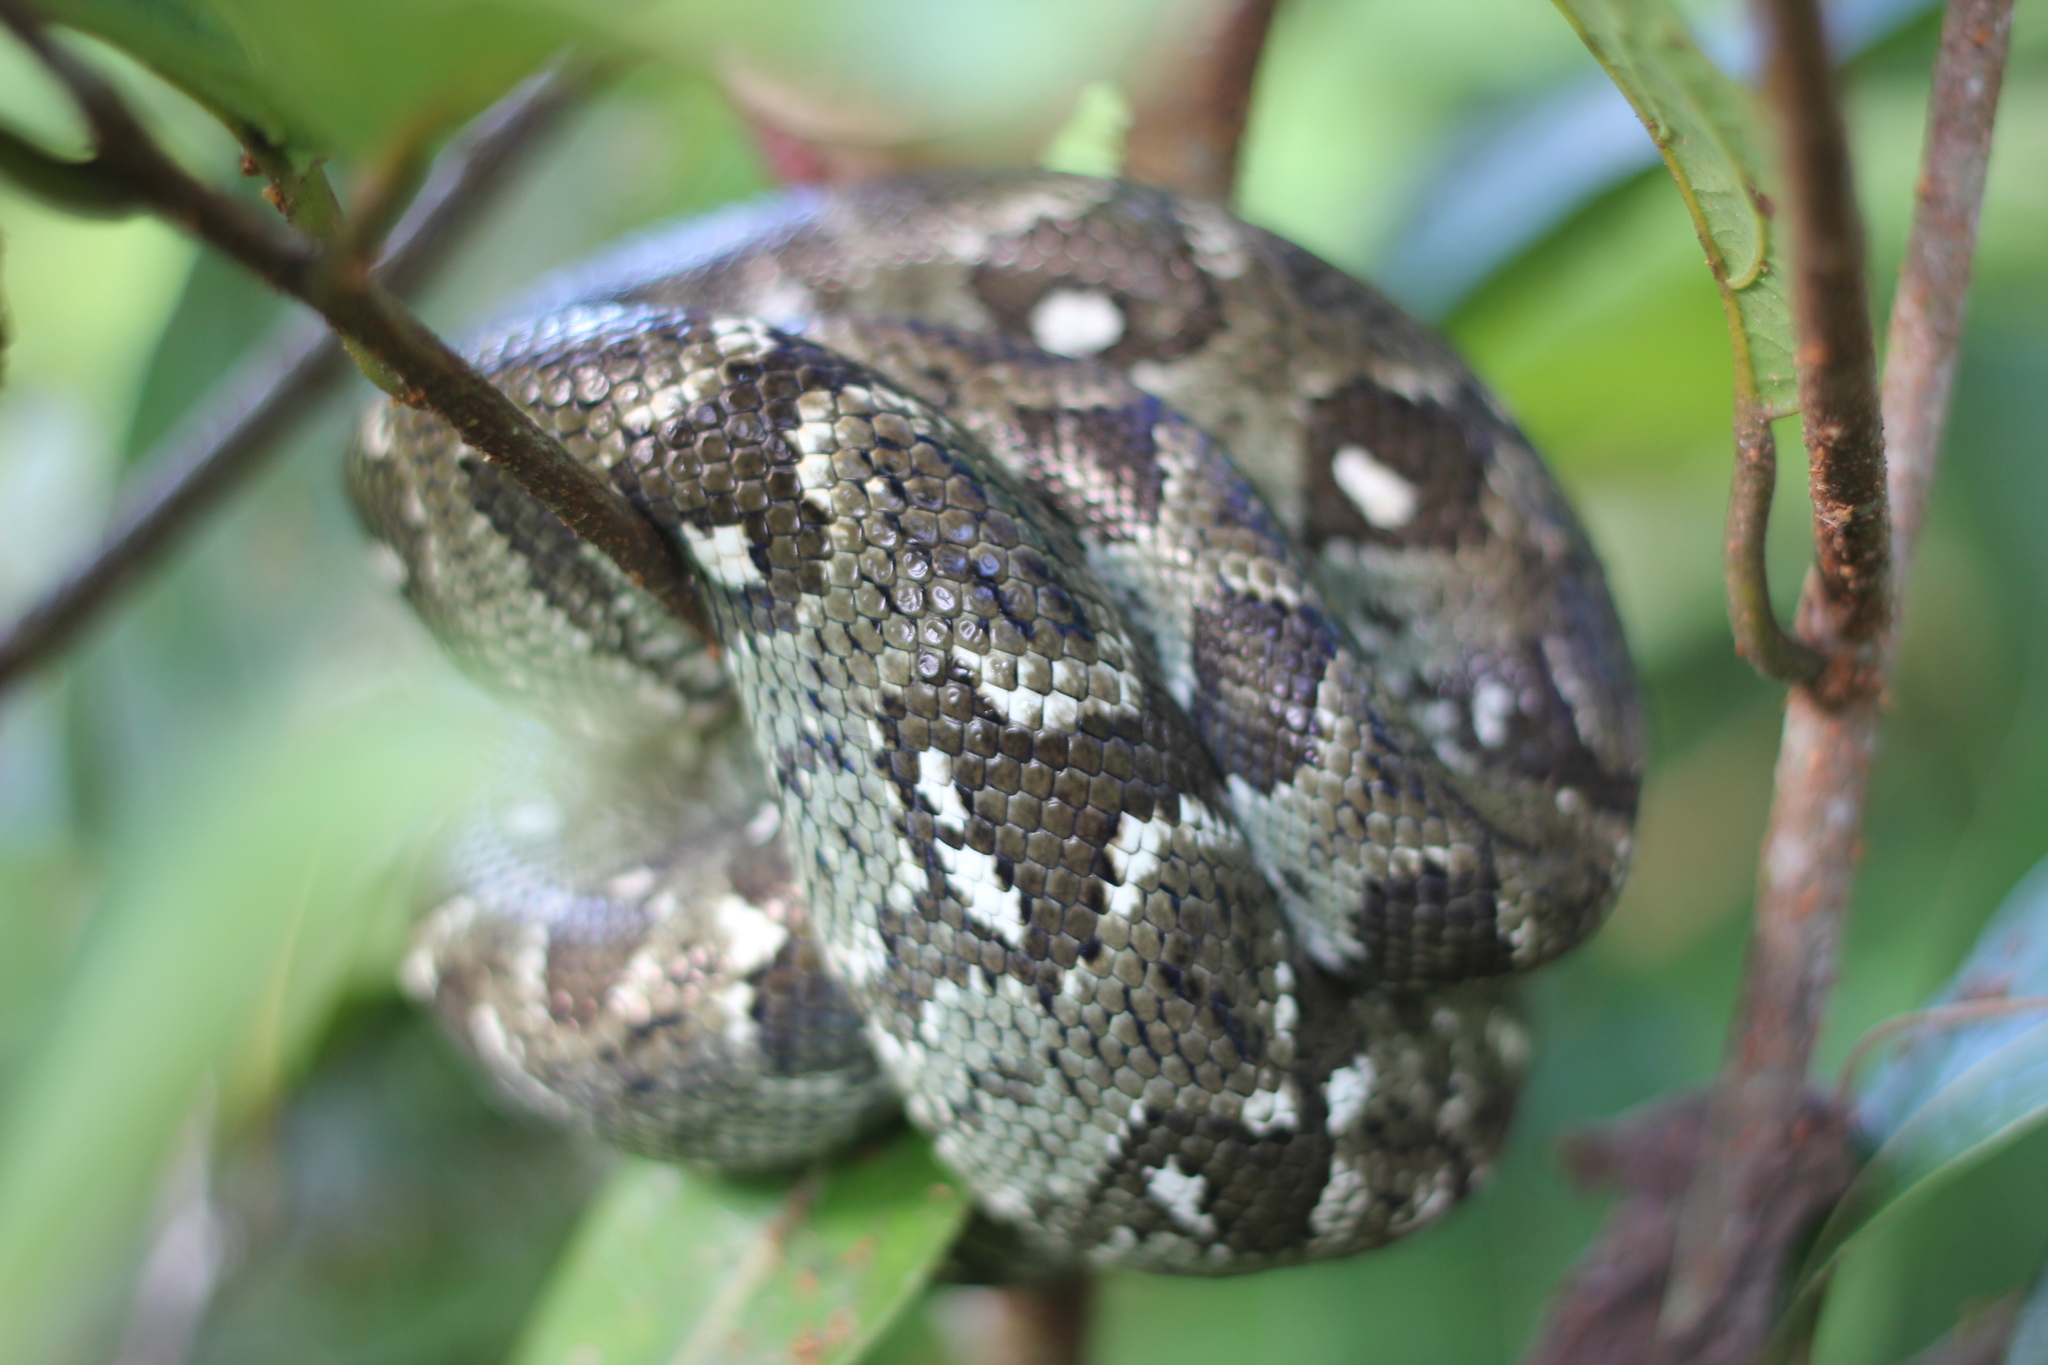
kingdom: Animalia
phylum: Chordata
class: Squamata
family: Boidae
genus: Sanzinia
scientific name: Sanzinia madagascariensis
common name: Madagascar tree boa
